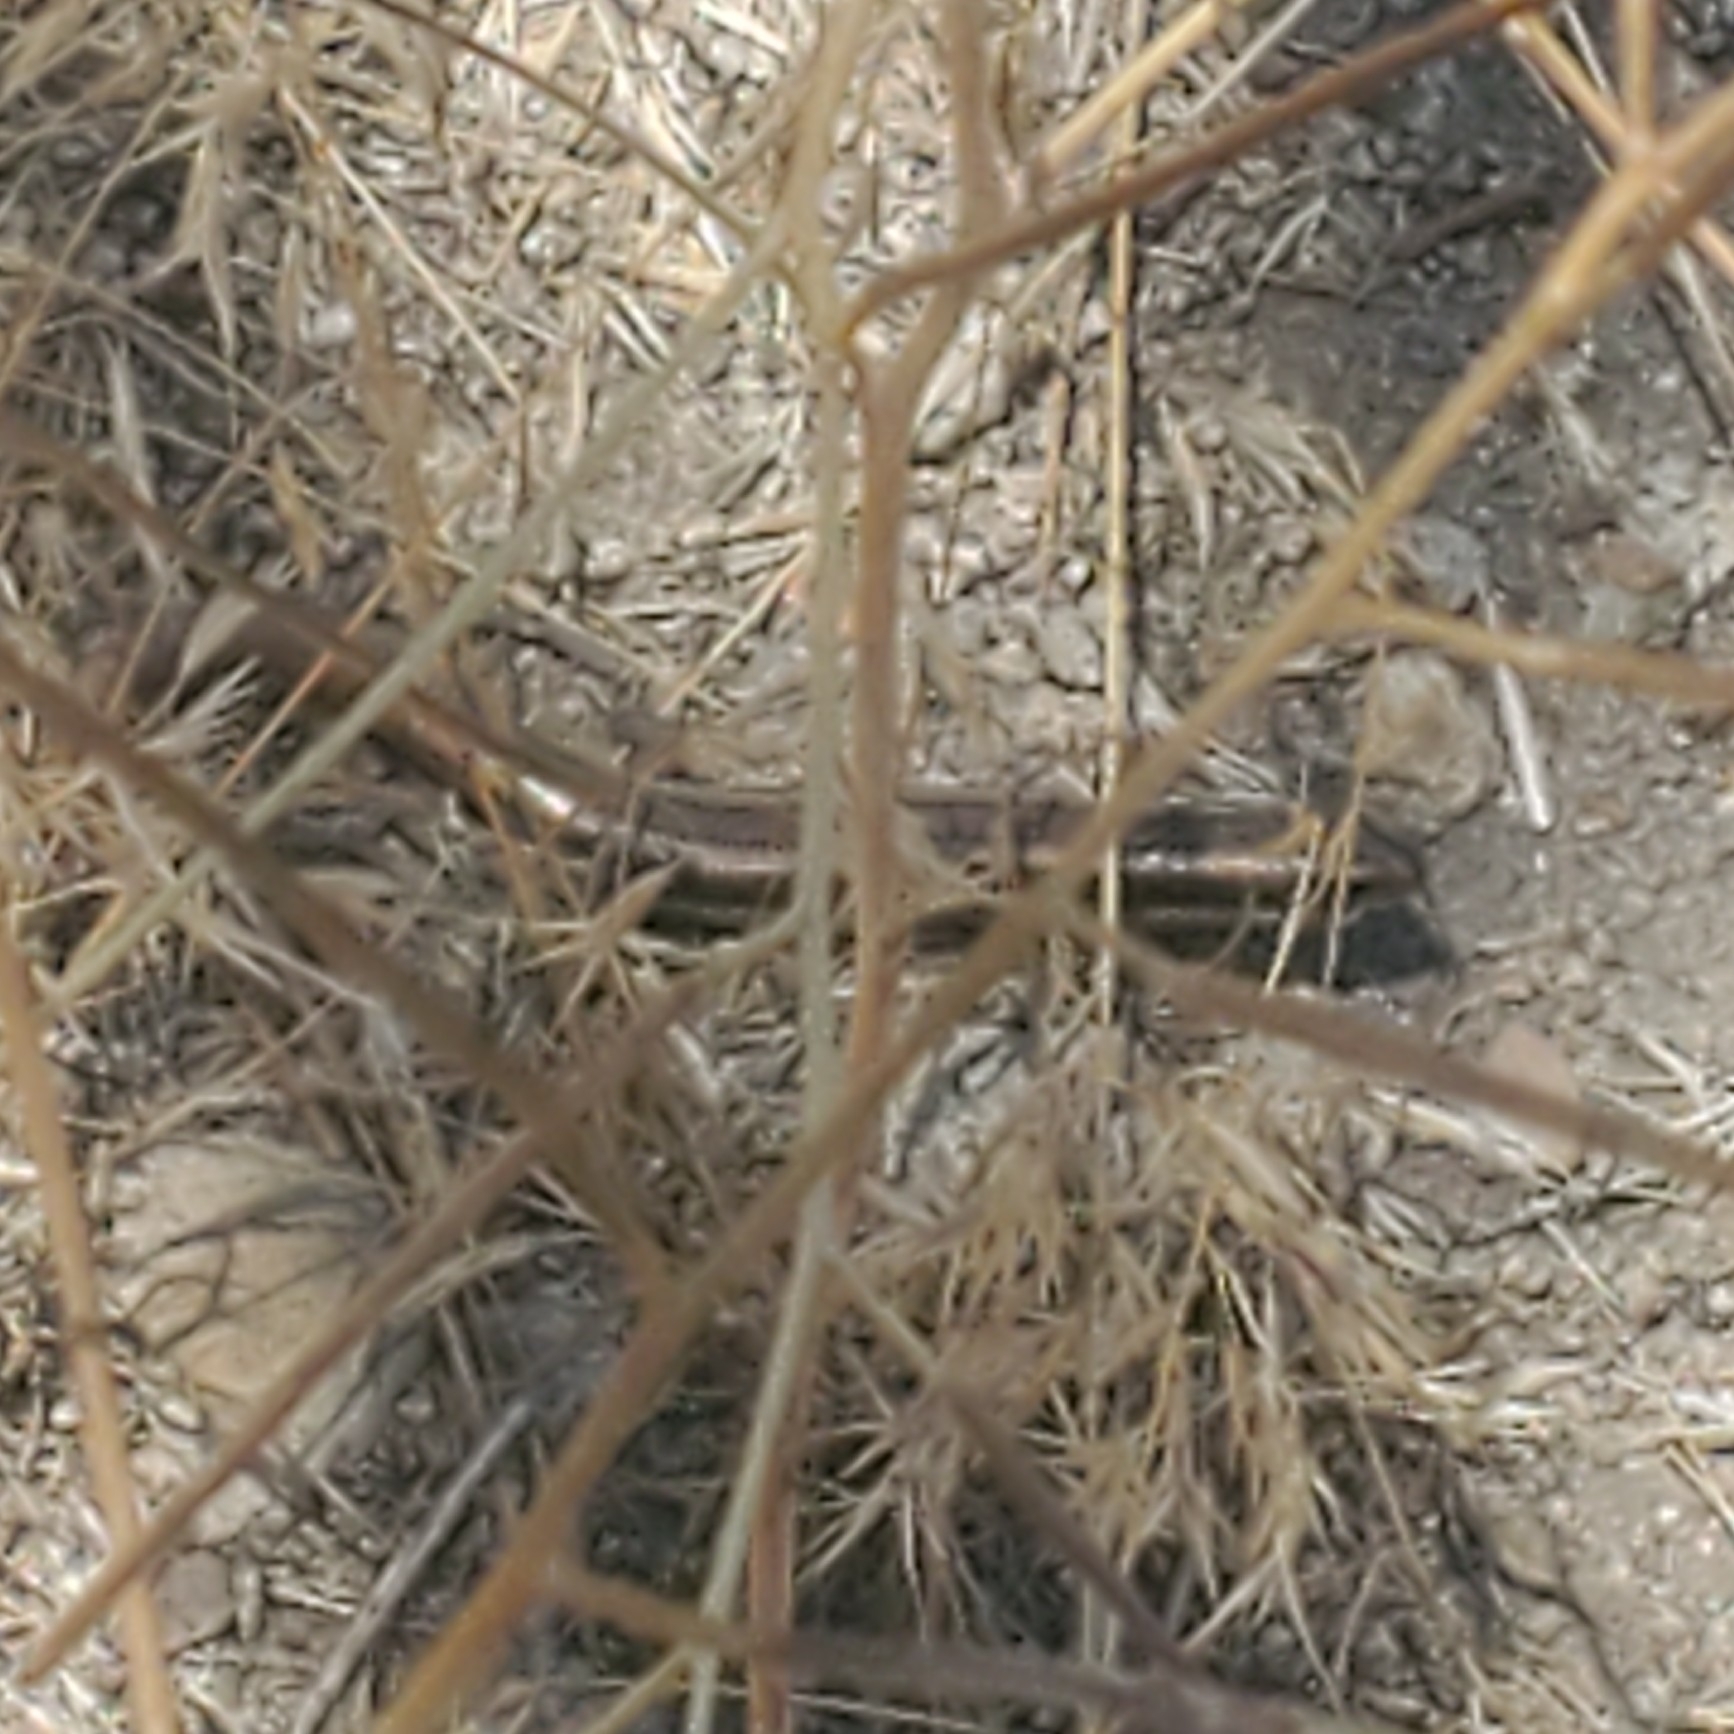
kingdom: Animalia
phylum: Chordata
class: Squamata
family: Scincidae
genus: Plestiodon
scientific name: Plestiodon skiltonianus
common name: Coronado island skink [interparietalis]
